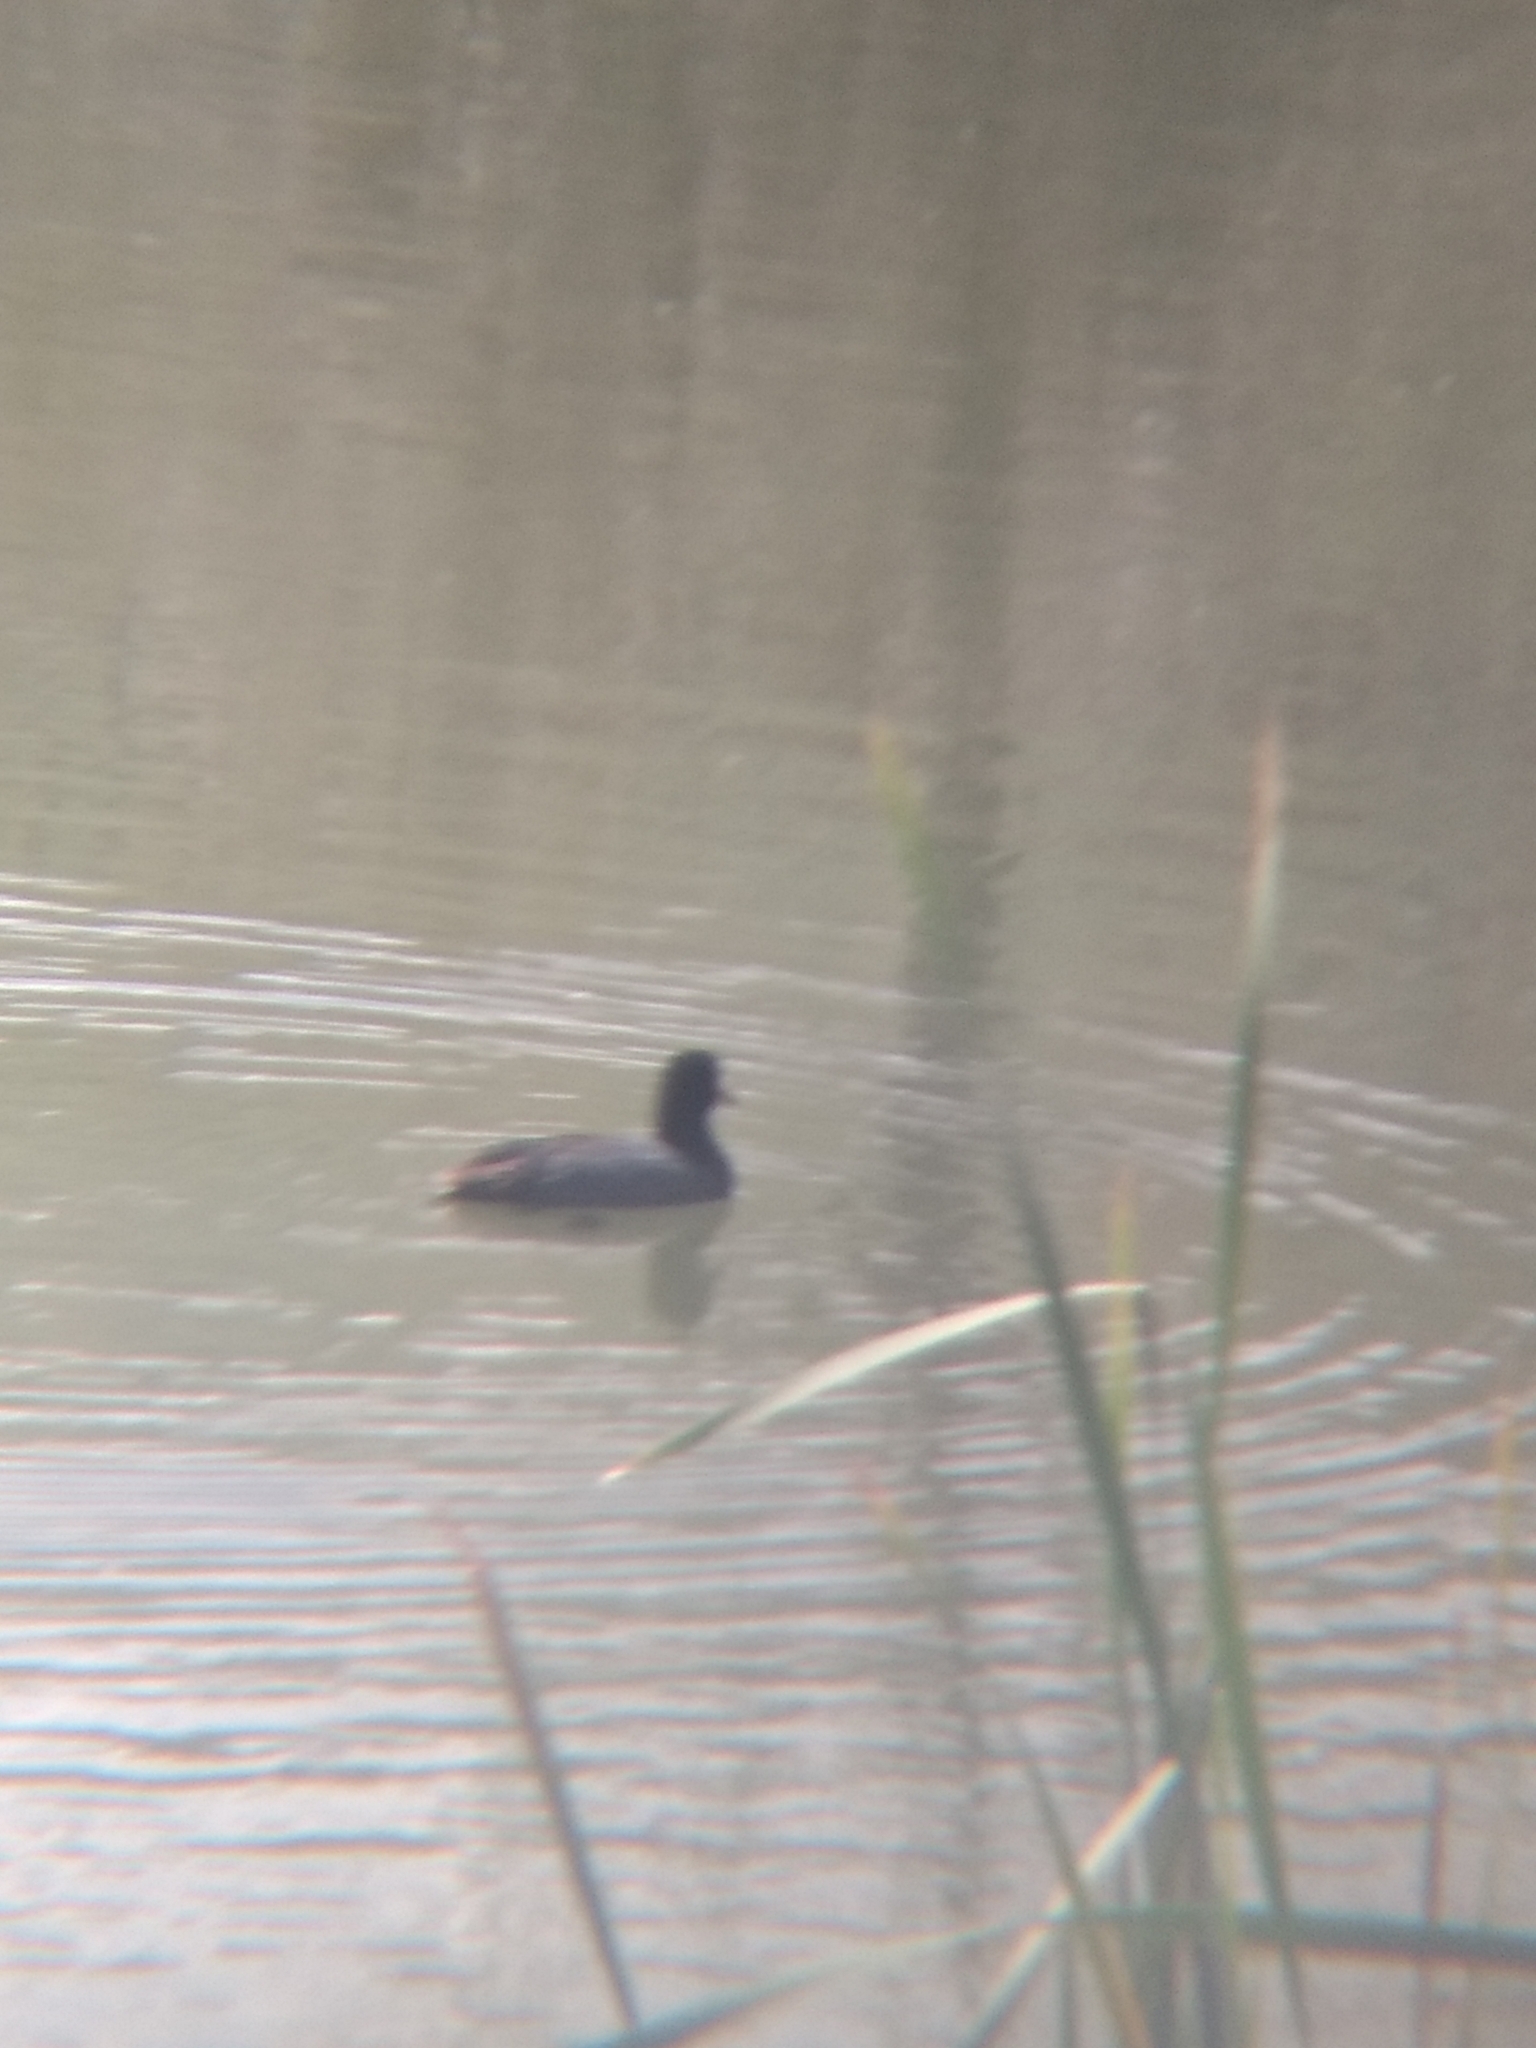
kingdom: Animalia
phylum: Chordata
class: Aves
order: Gruiformes
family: Rallidae
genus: Fulica
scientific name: Fulica americana
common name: American coot
